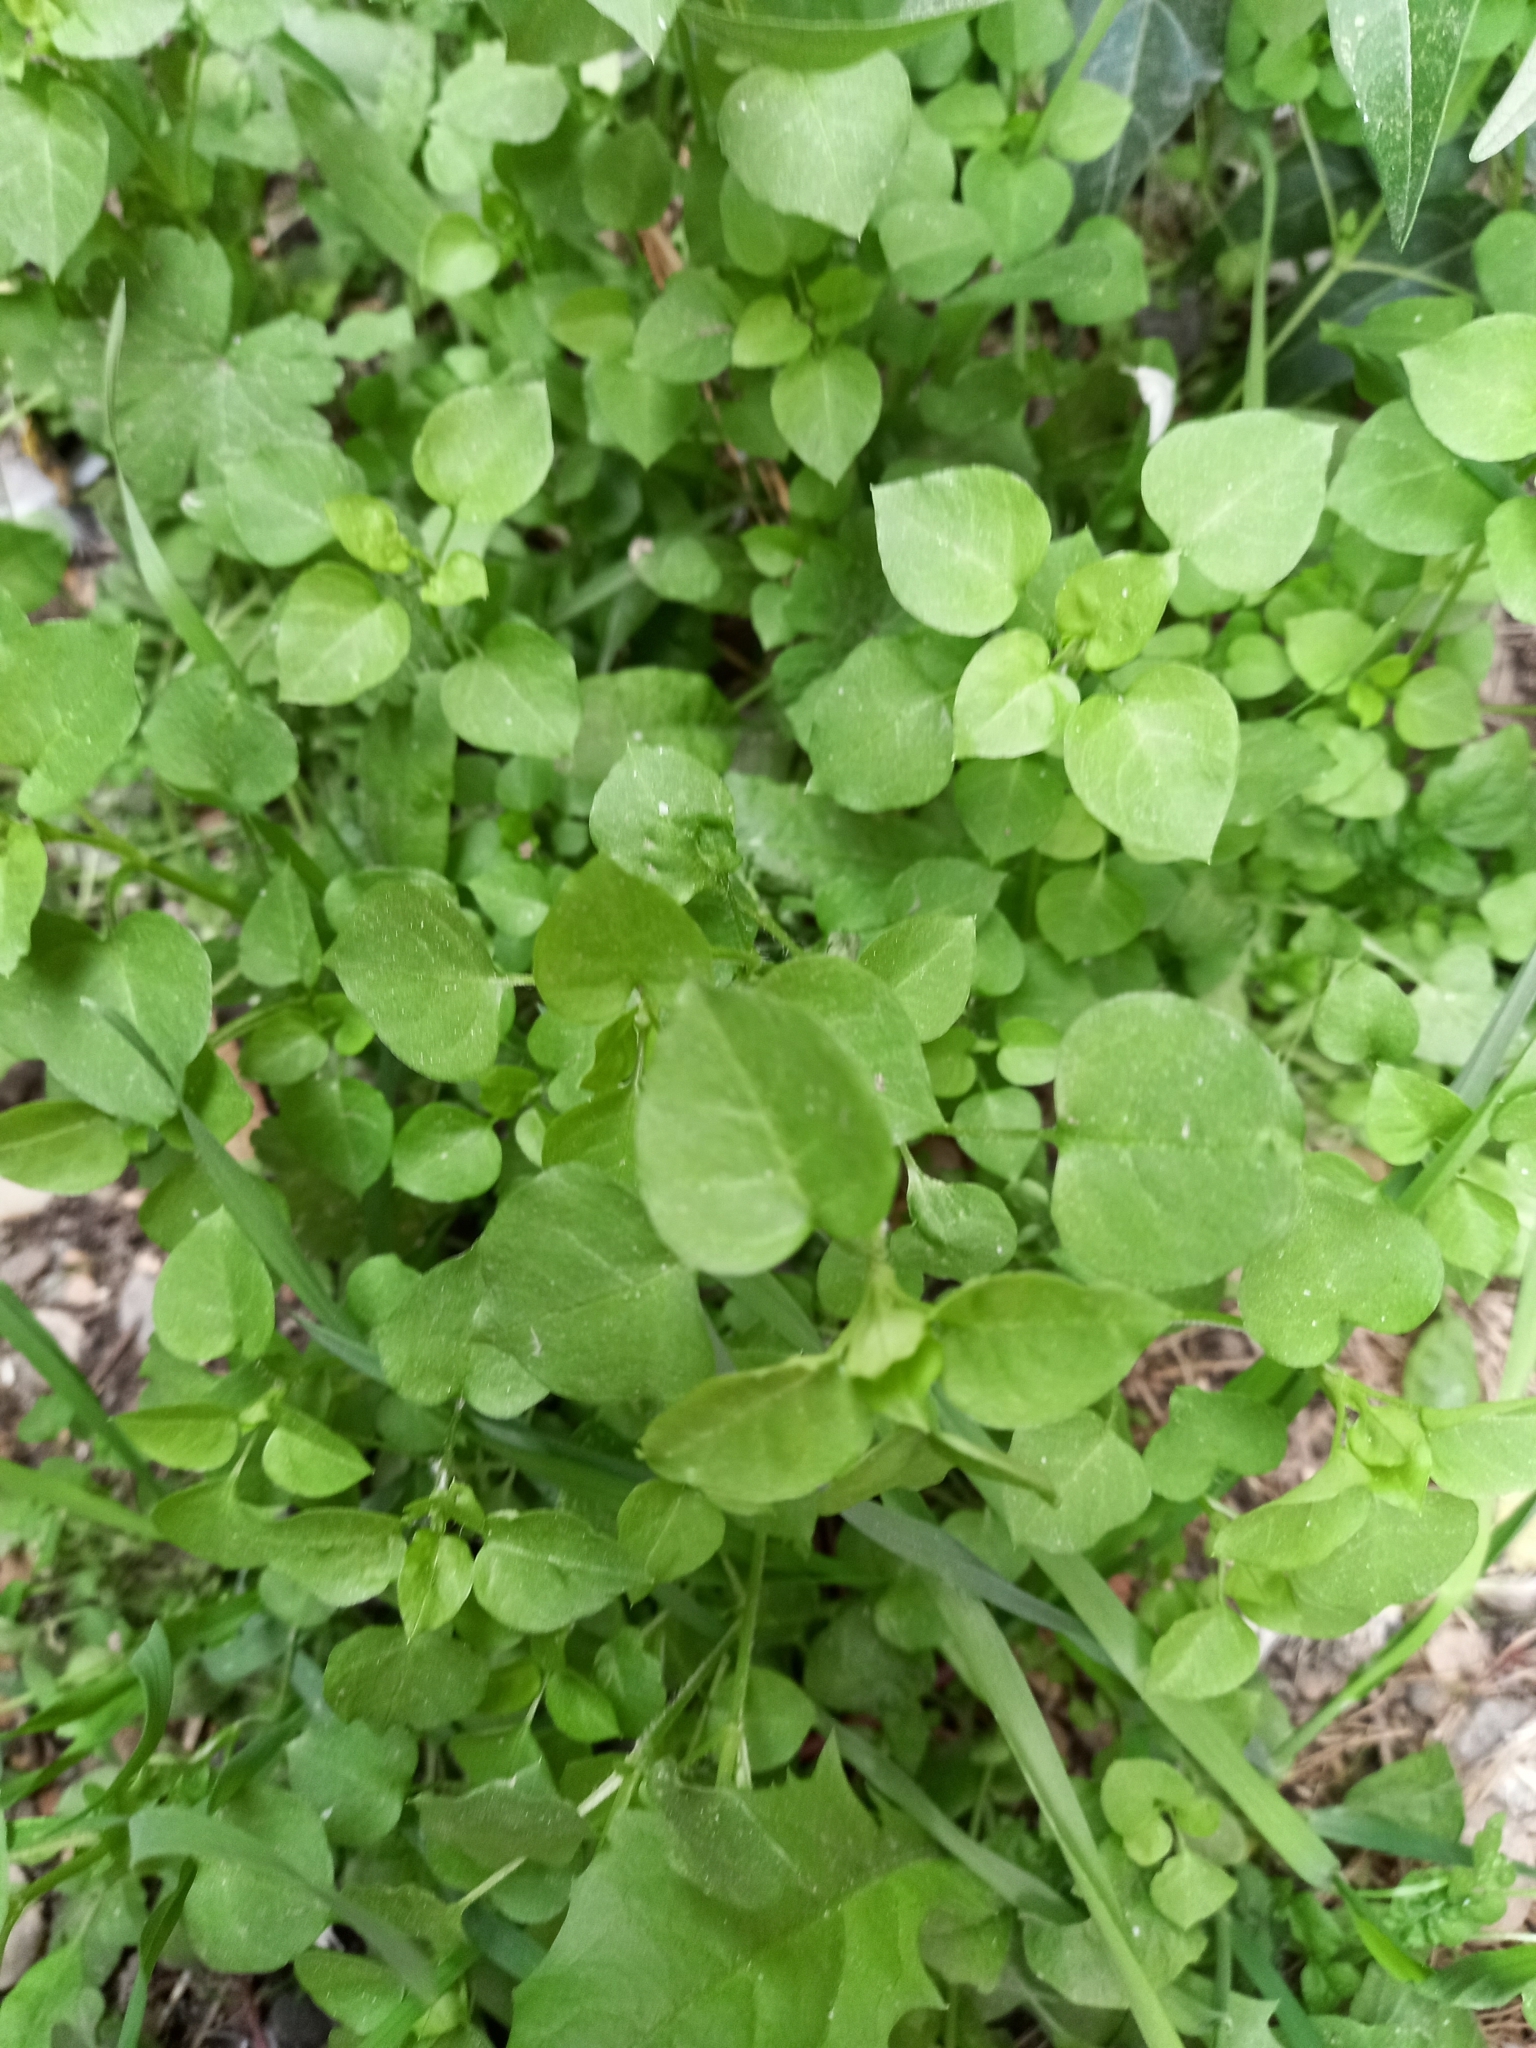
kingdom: Plantae
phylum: Tracheophyta
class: Magnoliopsida
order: Caryophyllales
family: Caryophyllaceae
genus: Stellaria
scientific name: Stellaria media
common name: Common chickweed
